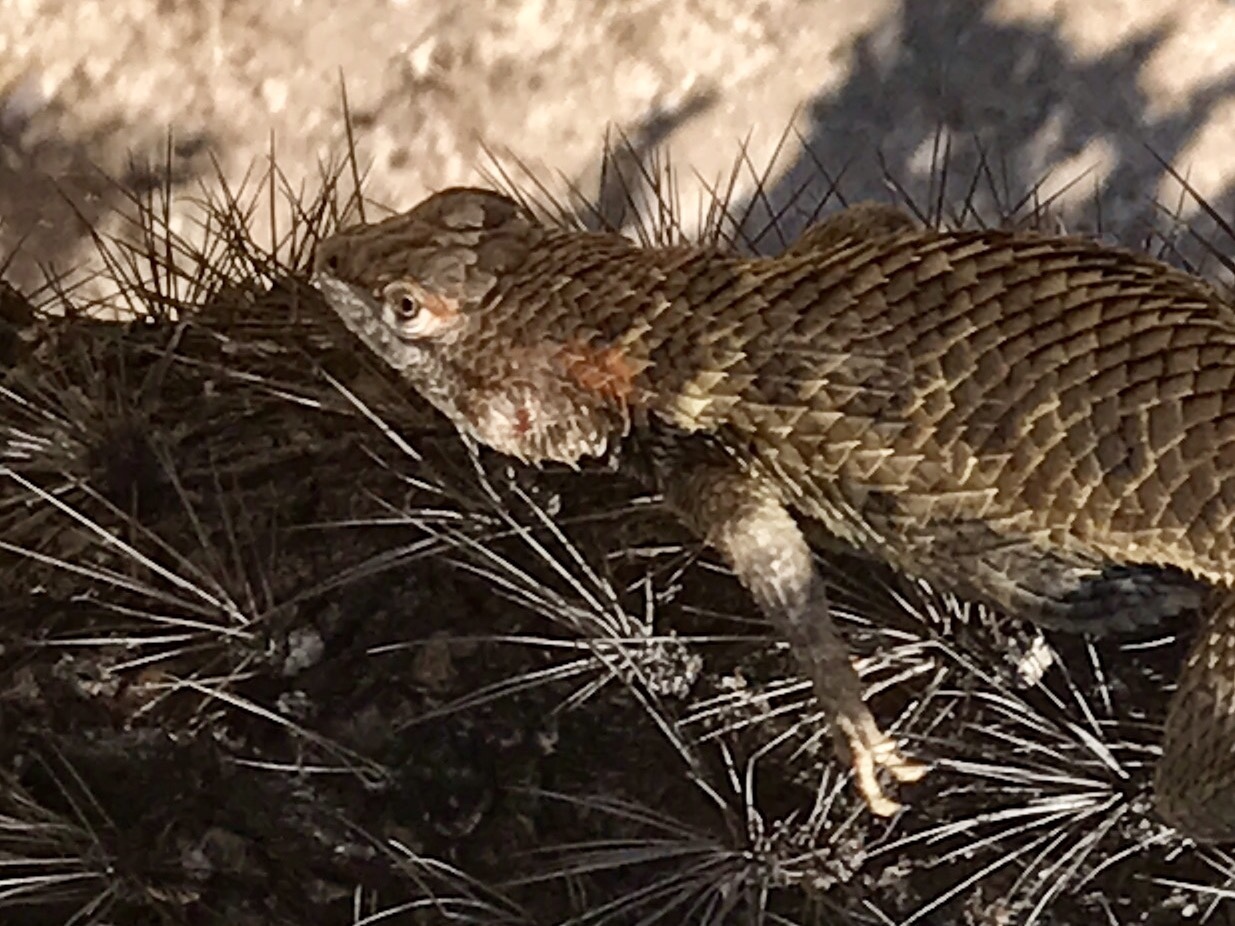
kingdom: Animalia
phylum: Chordata
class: Squamata
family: Phrynosomatidae
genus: Sceloporus
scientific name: Sceloporus magister
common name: Desert spiny lizard
